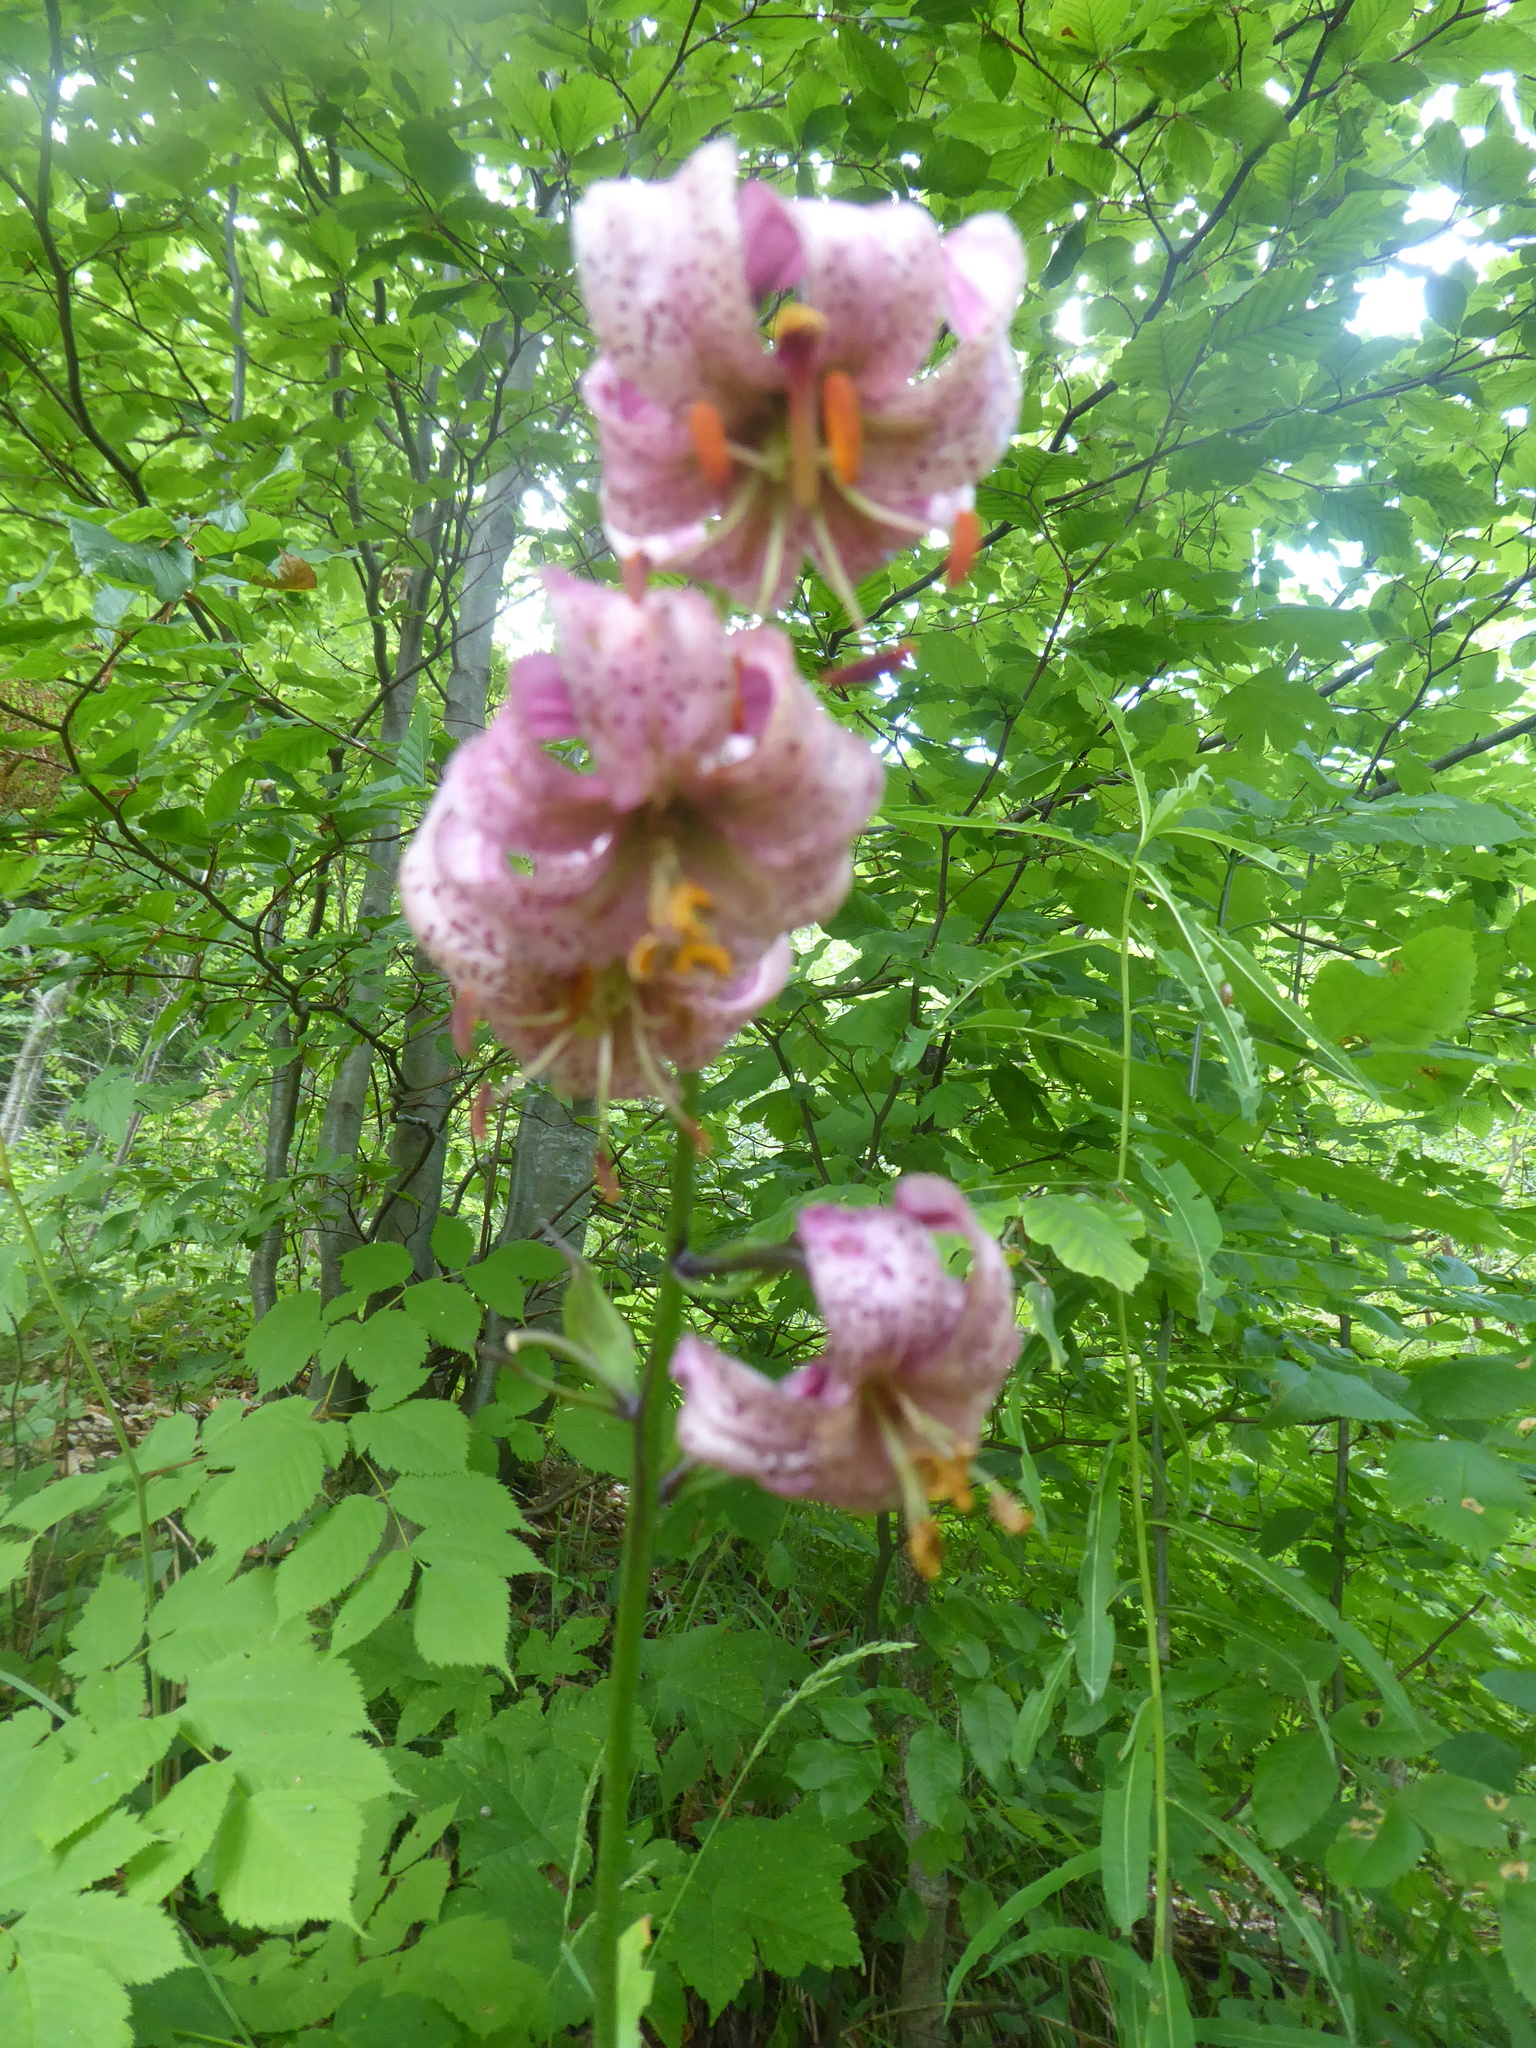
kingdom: Plantae
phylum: Tracheophyta
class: Liliopsida
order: Liliales
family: Liliaceae
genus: Lilium
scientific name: Lilium martagon
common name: Martagon lily
